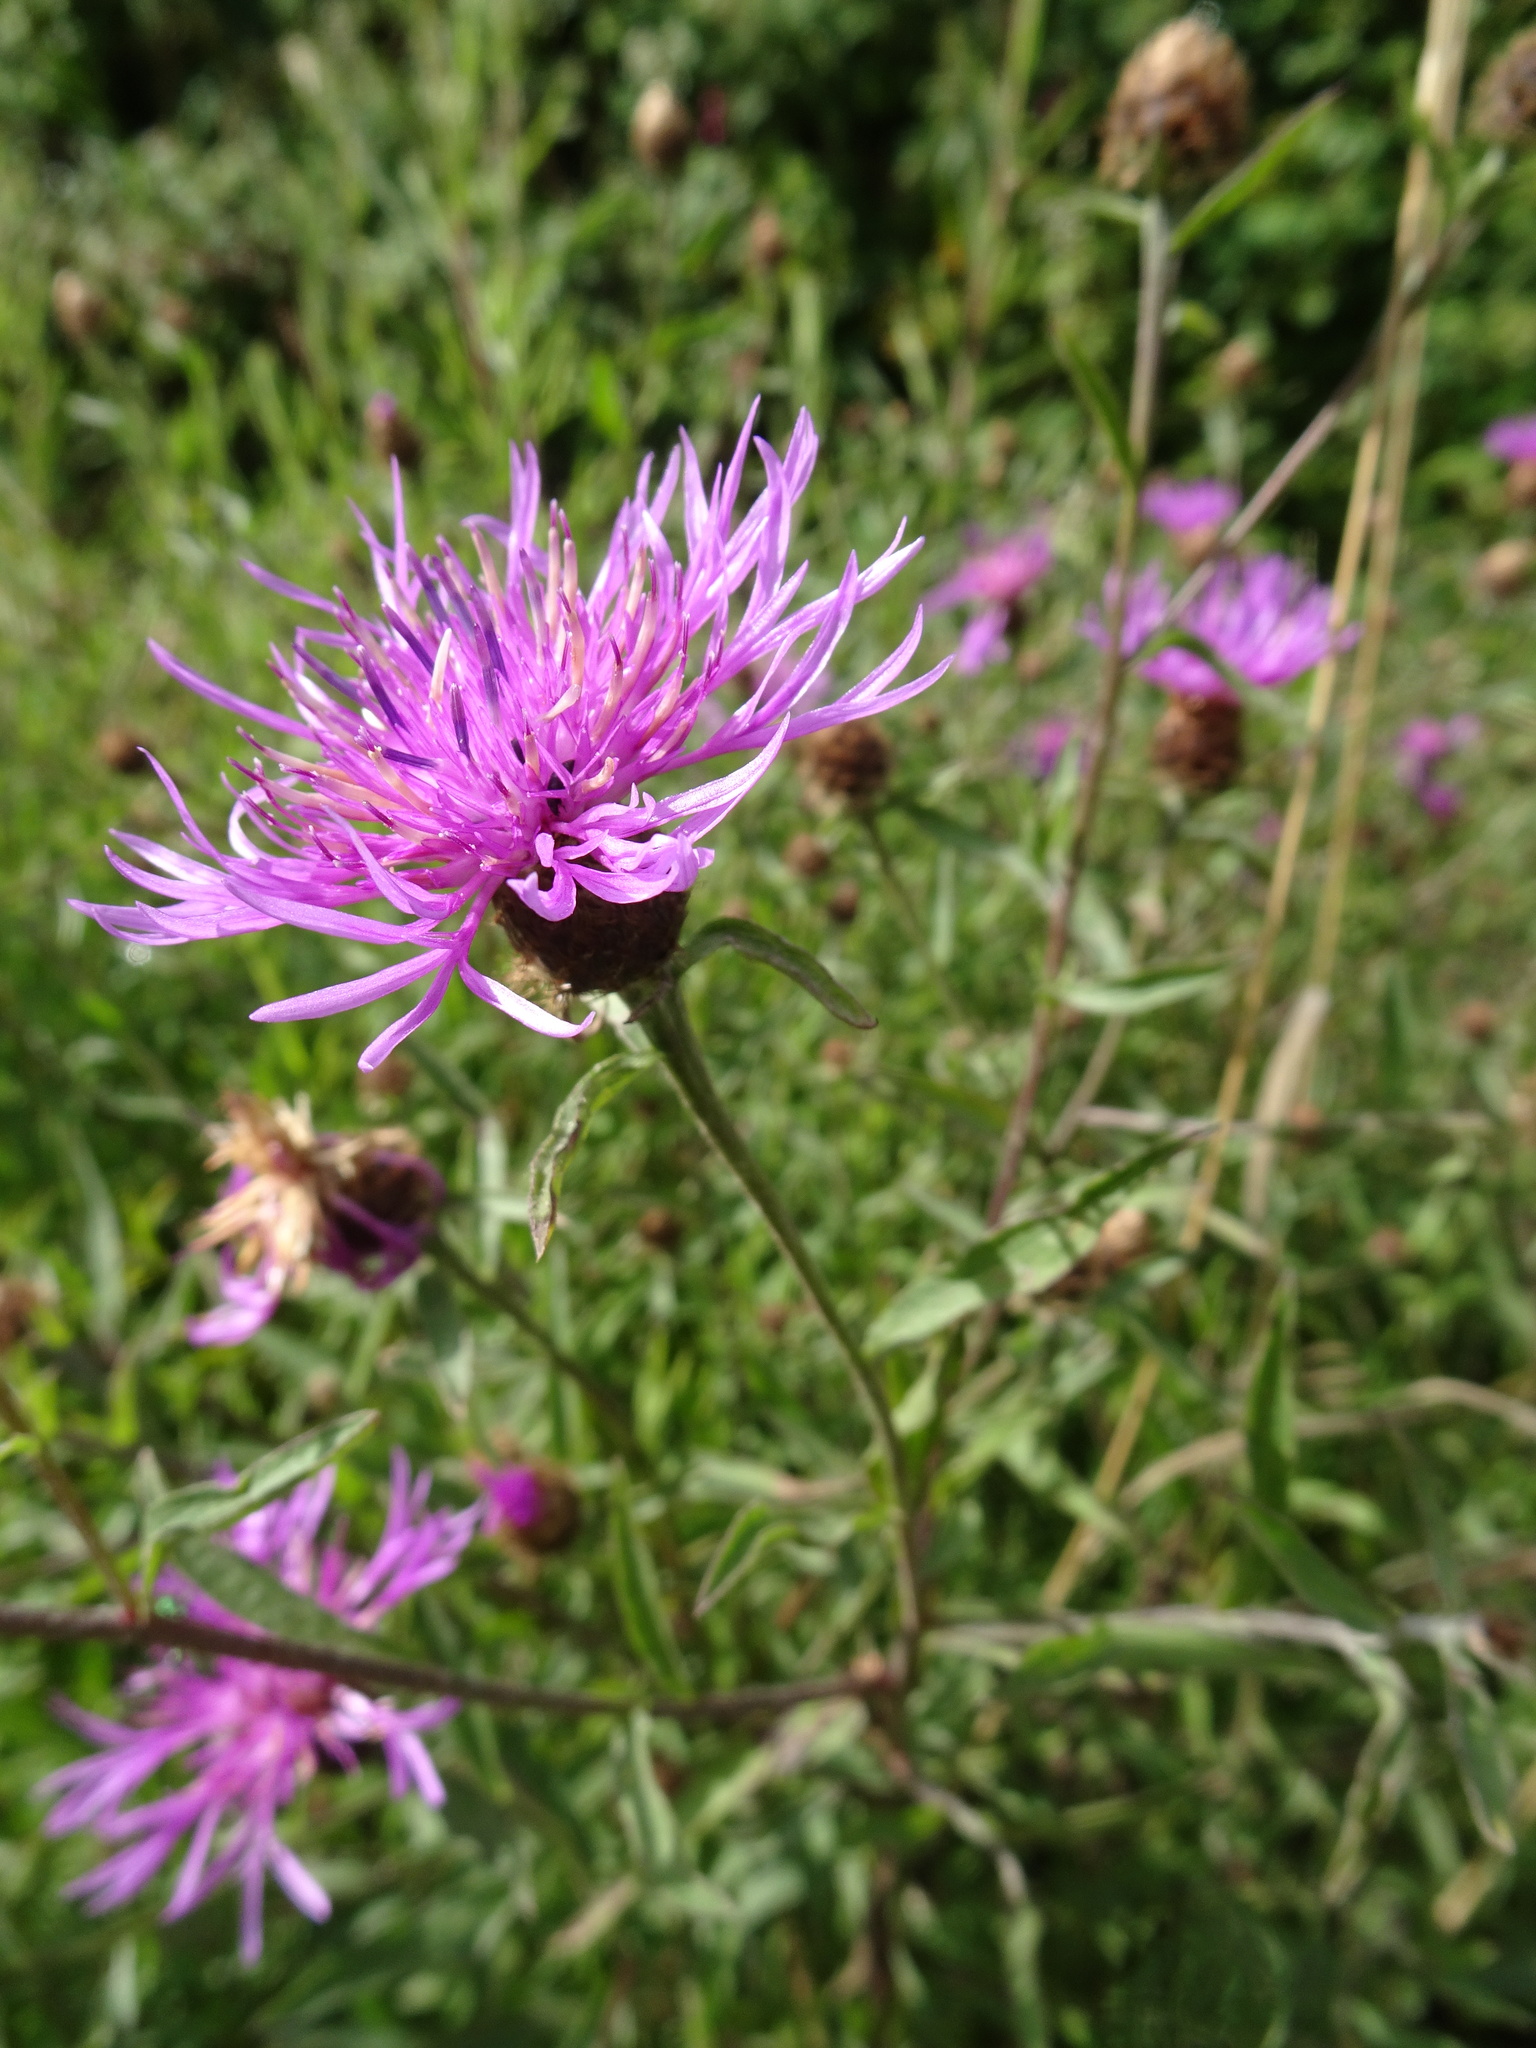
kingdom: Plantae
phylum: Tracheophyta
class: Magnoliopsida
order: Asterales
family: Asteraceae
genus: Centaurea
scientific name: Centaurea decipiens
